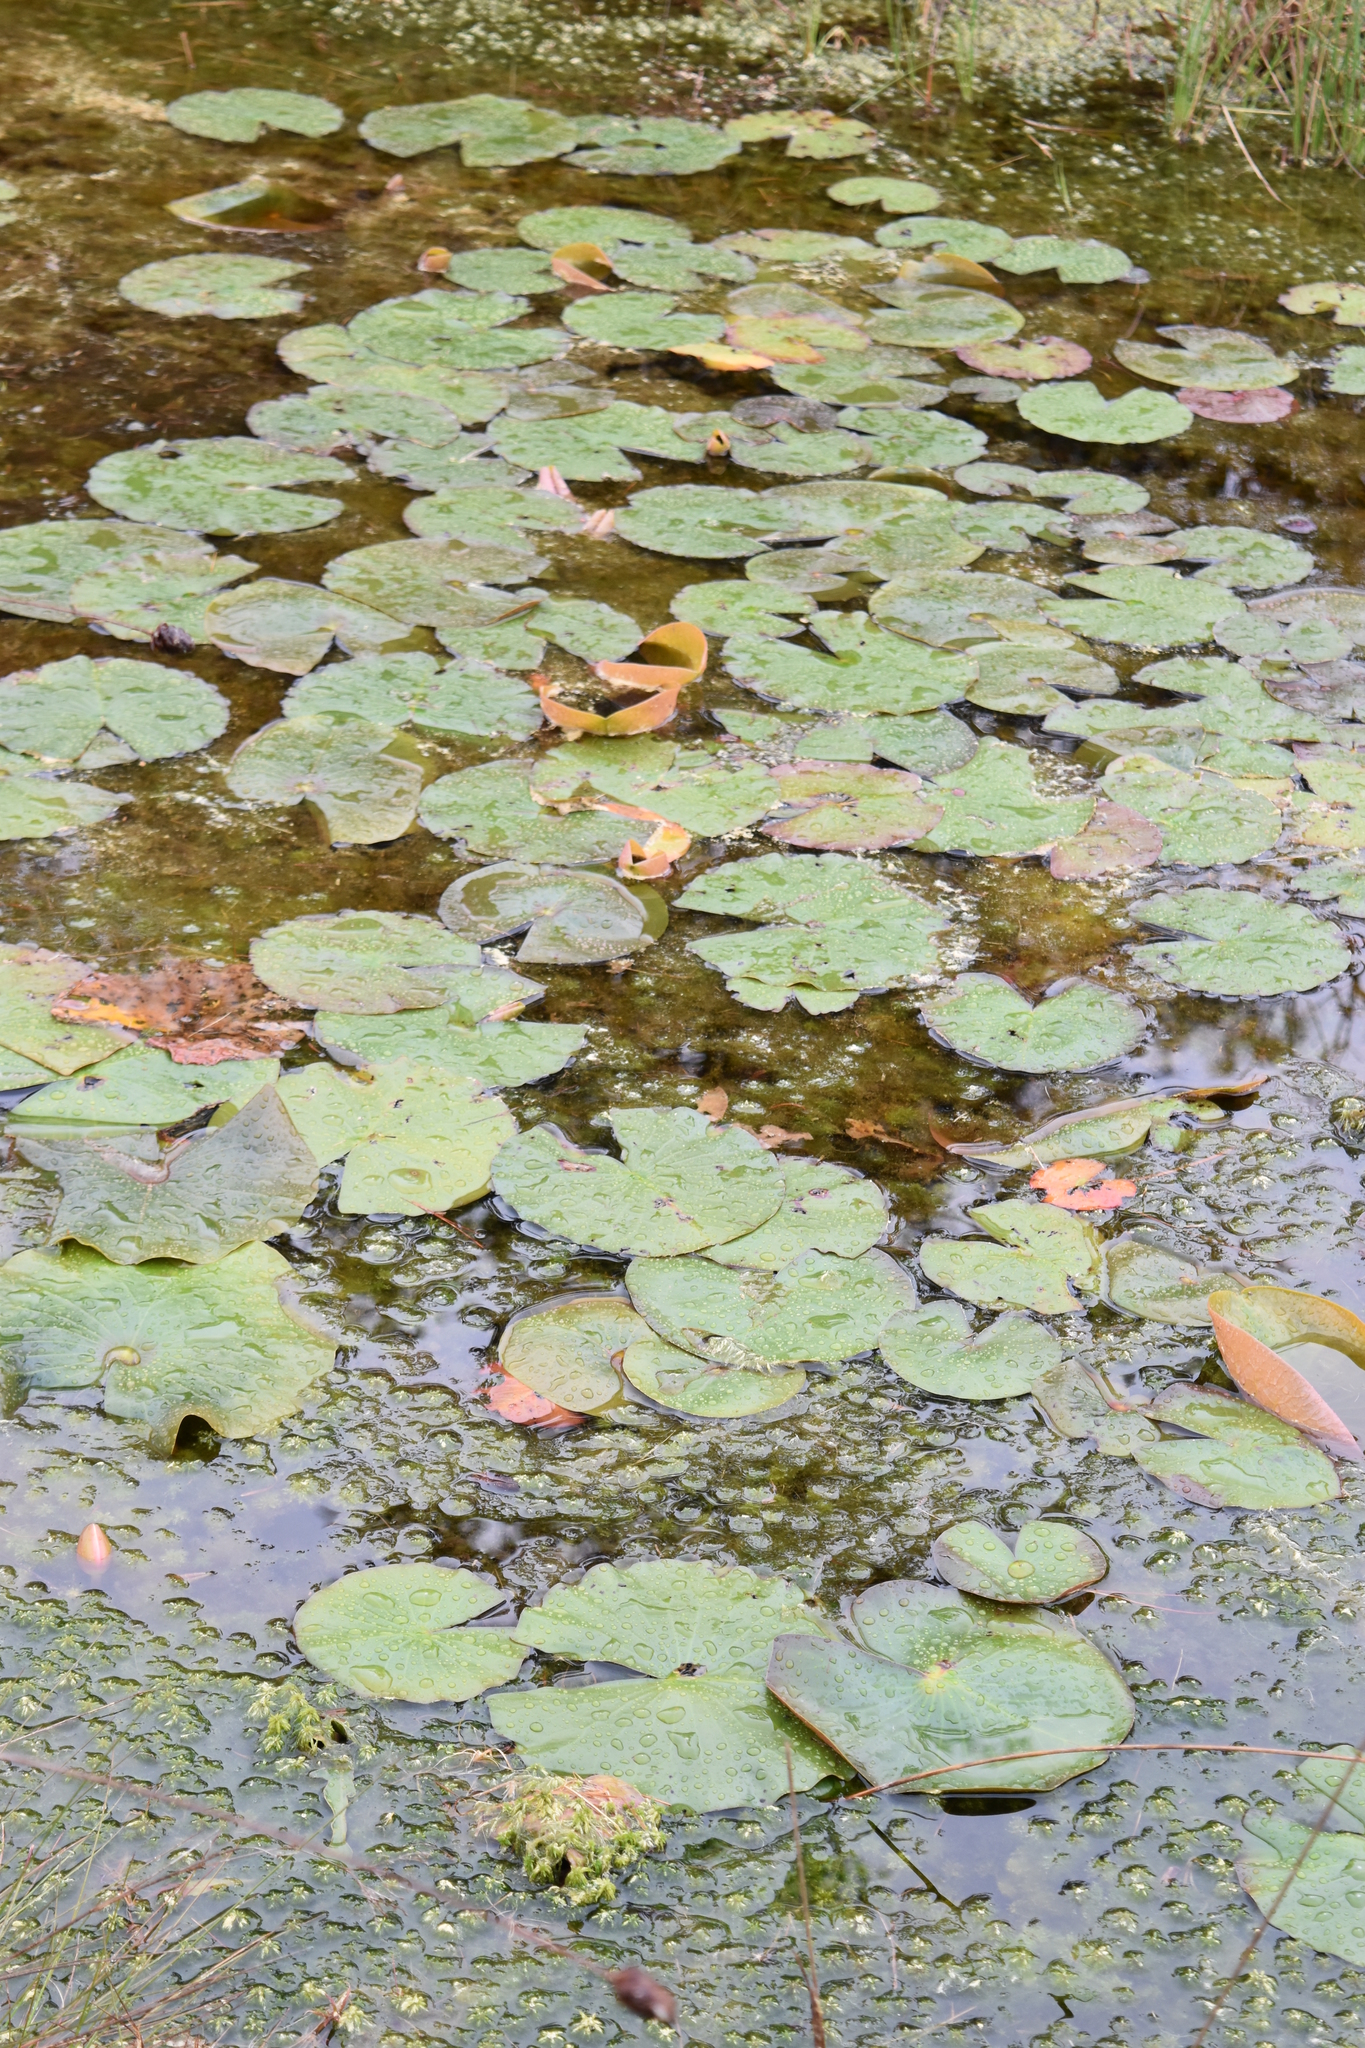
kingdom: Plantae
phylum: Tracheophyta
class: Magnoliopsida
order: Nymphaeales
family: Nymphaeaceae
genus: Nymphaea
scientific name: Nymphaea odorata
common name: Fragrant water-lily
